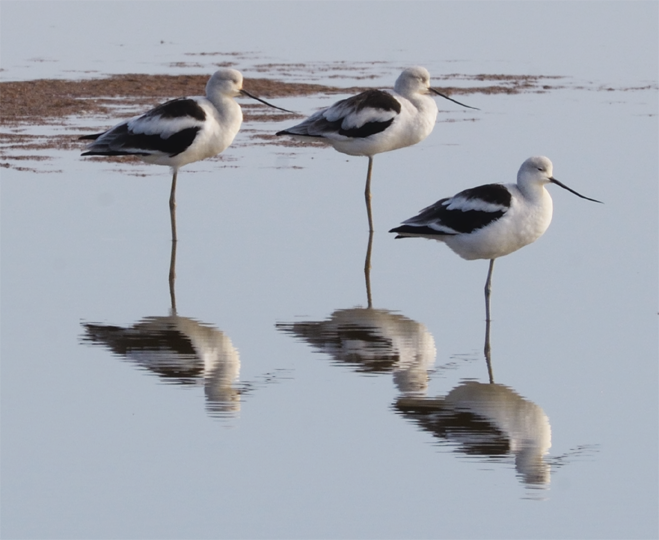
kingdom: Animalia
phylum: Chordata
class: Aves
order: Charadriiformes
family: Recurvirostridae
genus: Recurvirostra
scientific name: Recurvirostra americana
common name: American avocet
